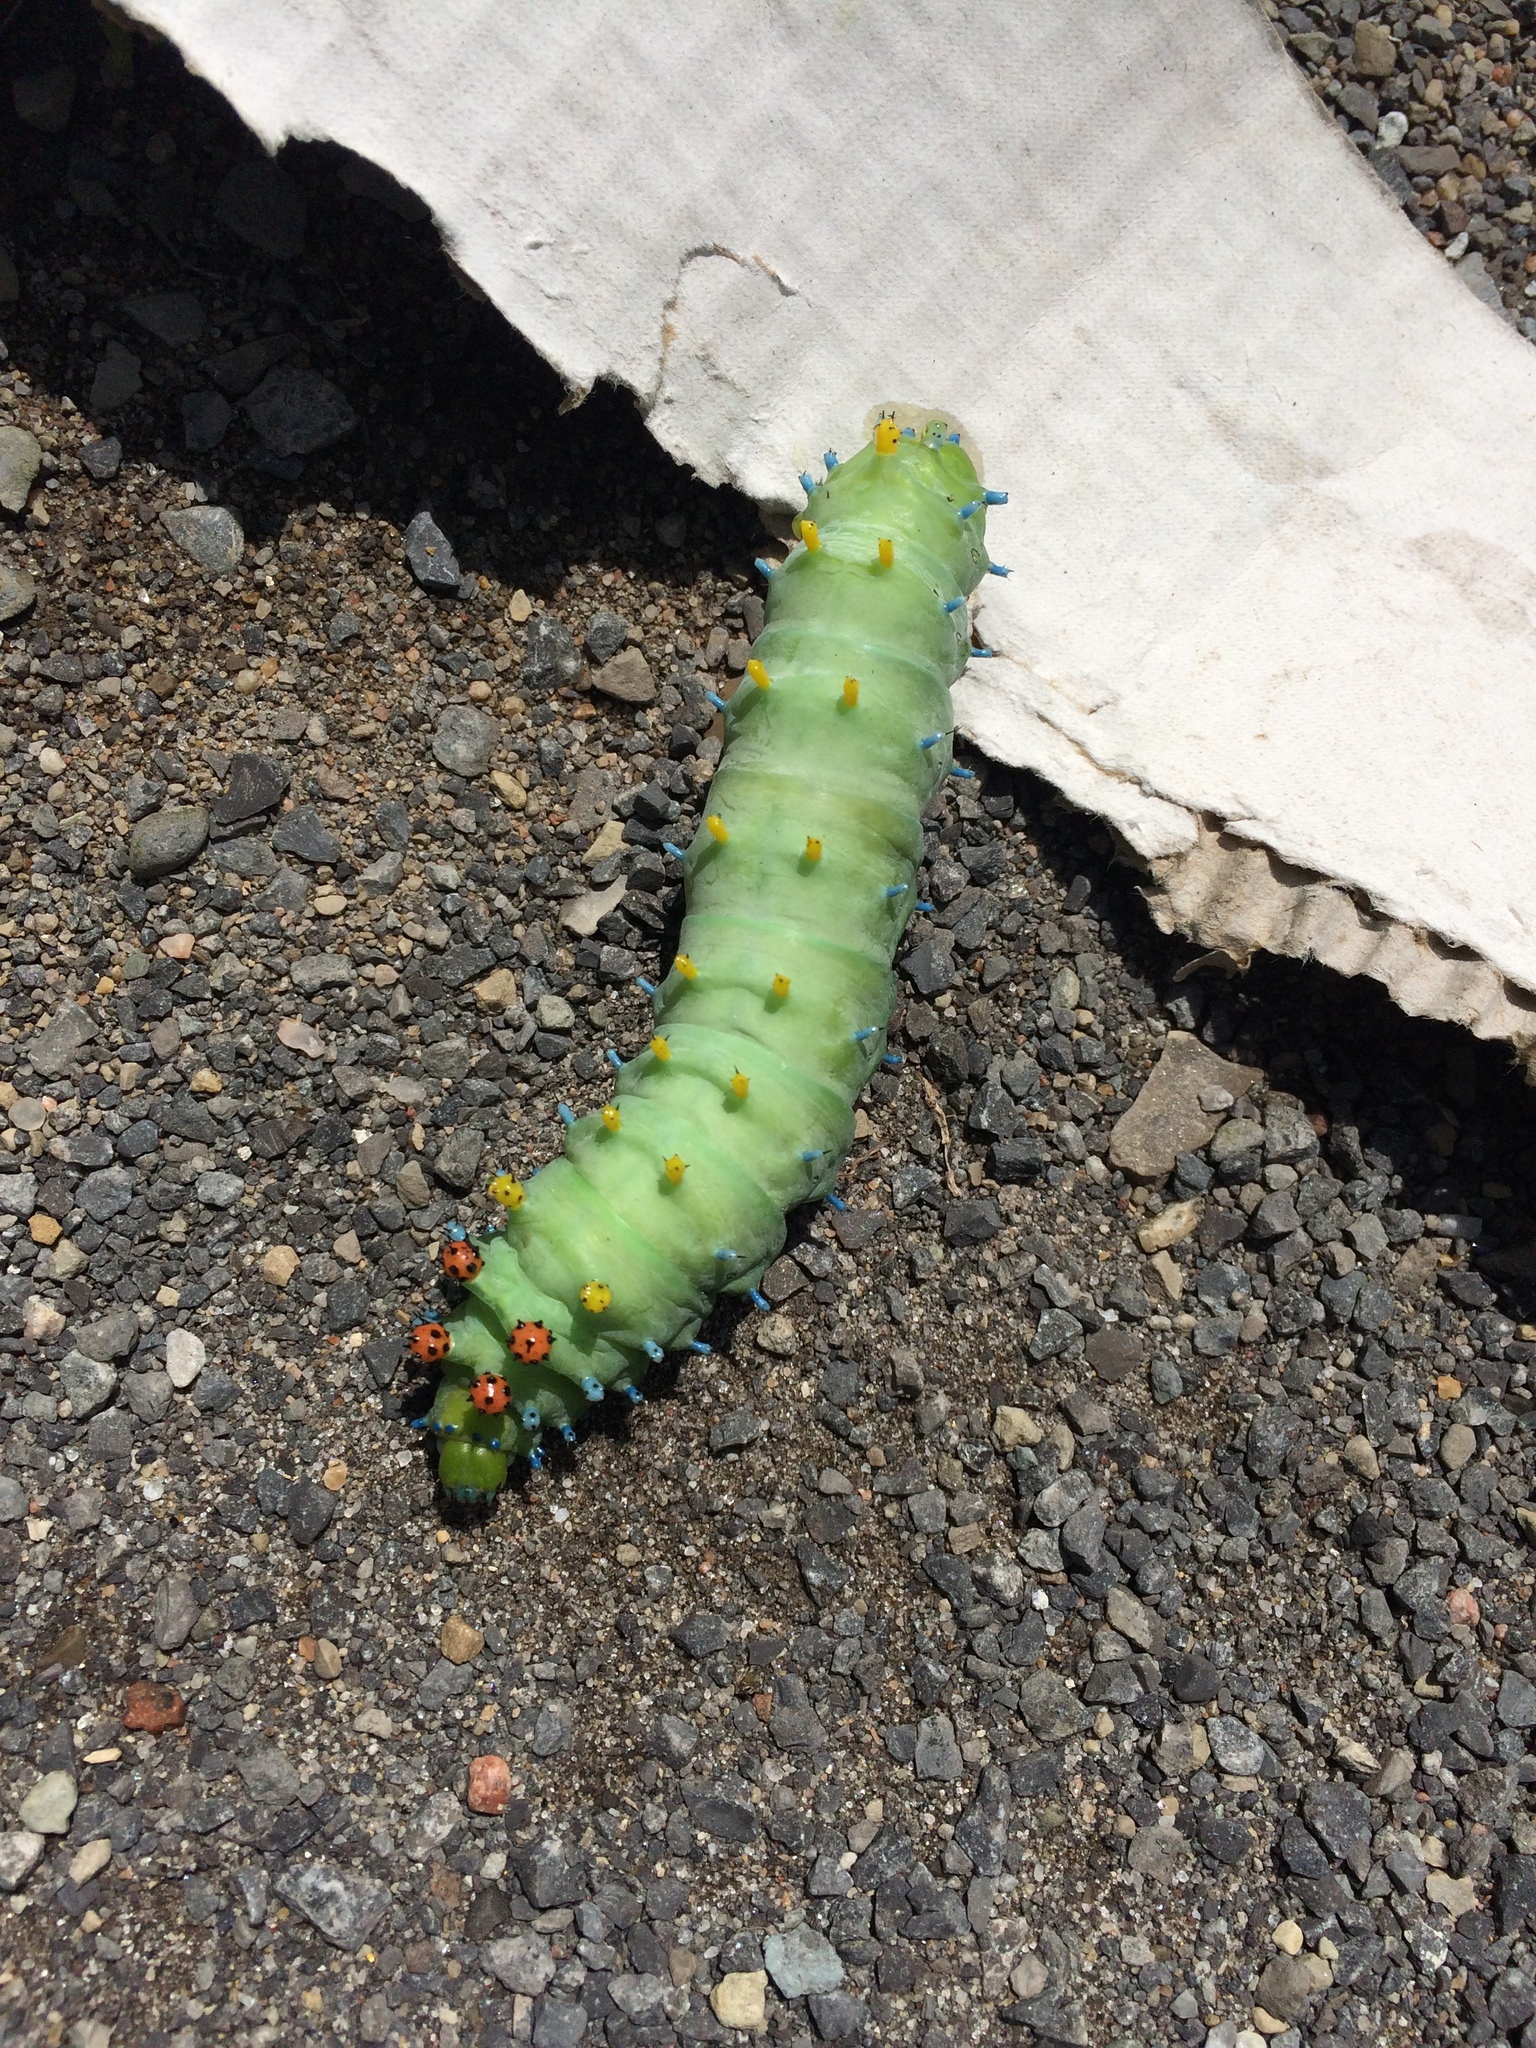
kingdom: Animalia
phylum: Arthropoda
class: Insecta
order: Lepidoptera
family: Saturniidae
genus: Hyalophora
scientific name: Hyalophora cecropia
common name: Cecropia silkmoth
